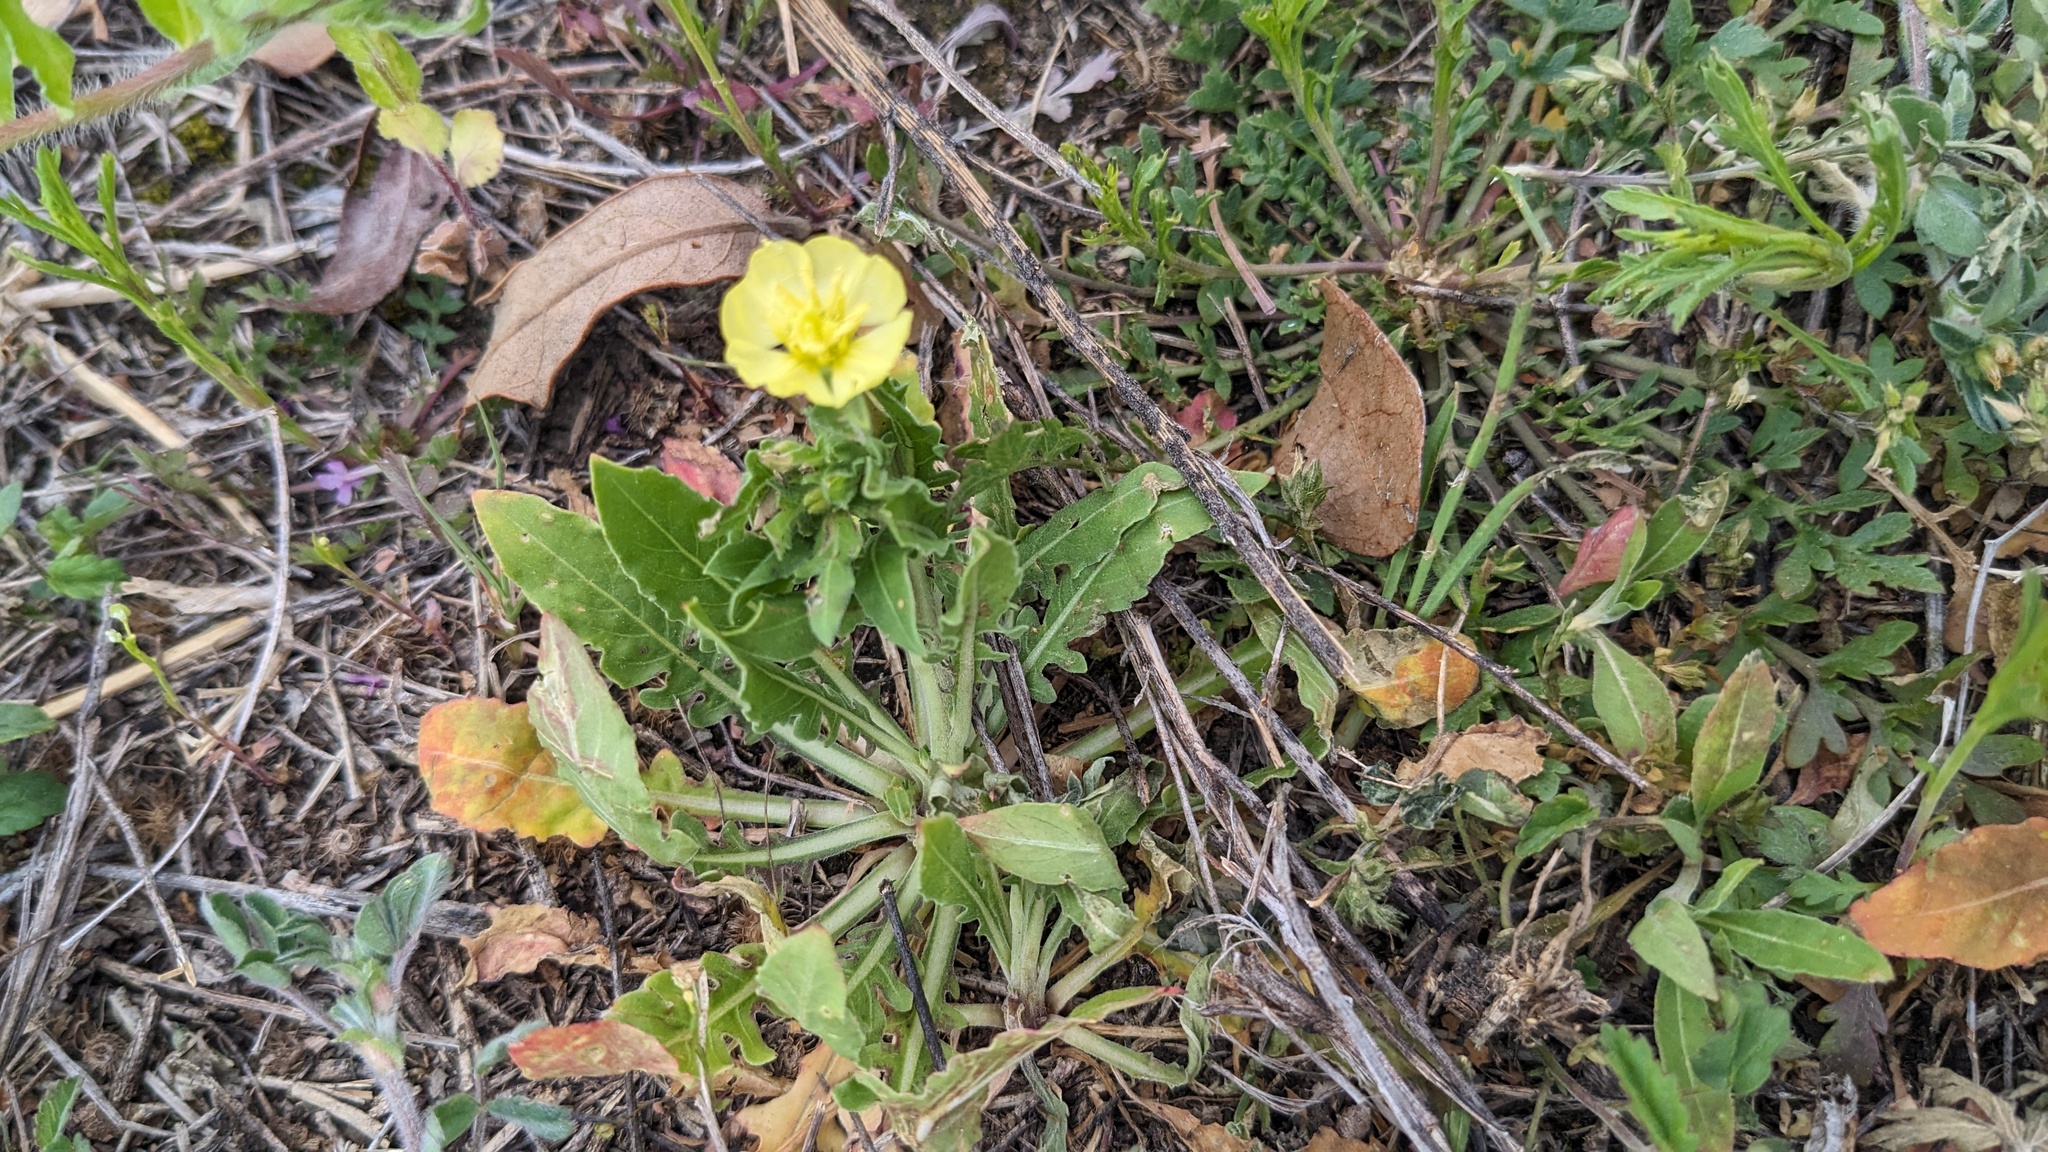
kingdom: Plantae
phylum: Tracheophyta
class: Magnoliopsida
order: Myrtales
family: Onagraceae
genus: Oenothera
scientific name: Oenothera laciniata
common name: Cut-leaved evening-primrose
